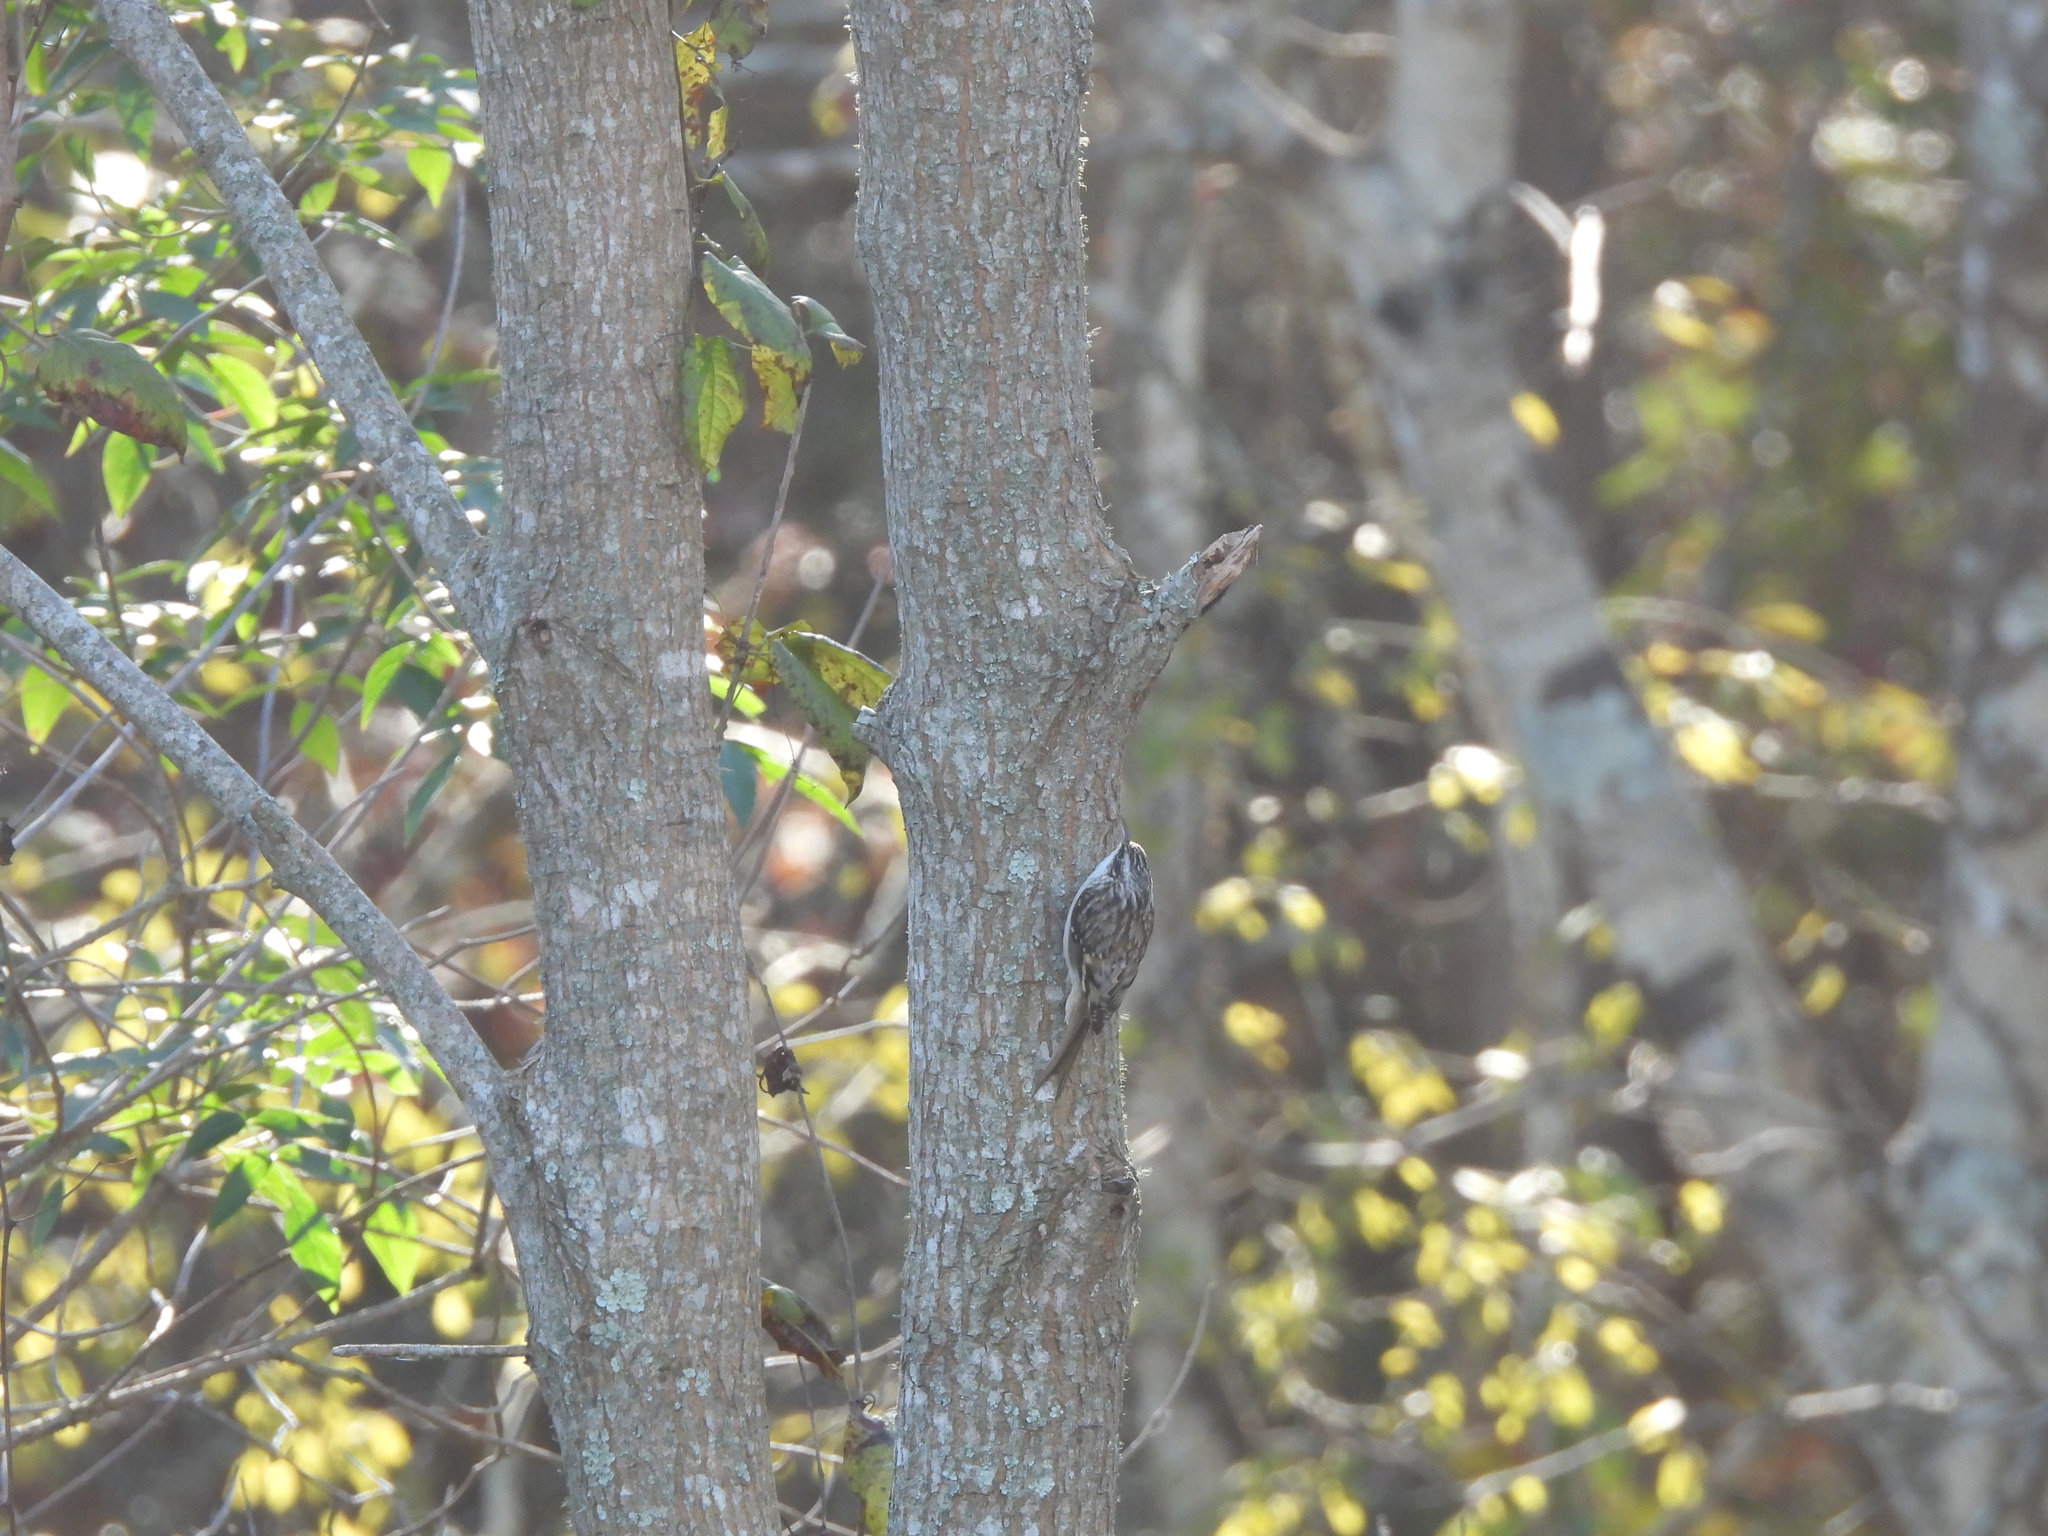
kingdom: Animalia
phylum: Chordata
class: Aves
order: Passeriformes
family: Certhiidae
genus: Certhia
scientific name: Certhia americana
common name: Brown creeper
